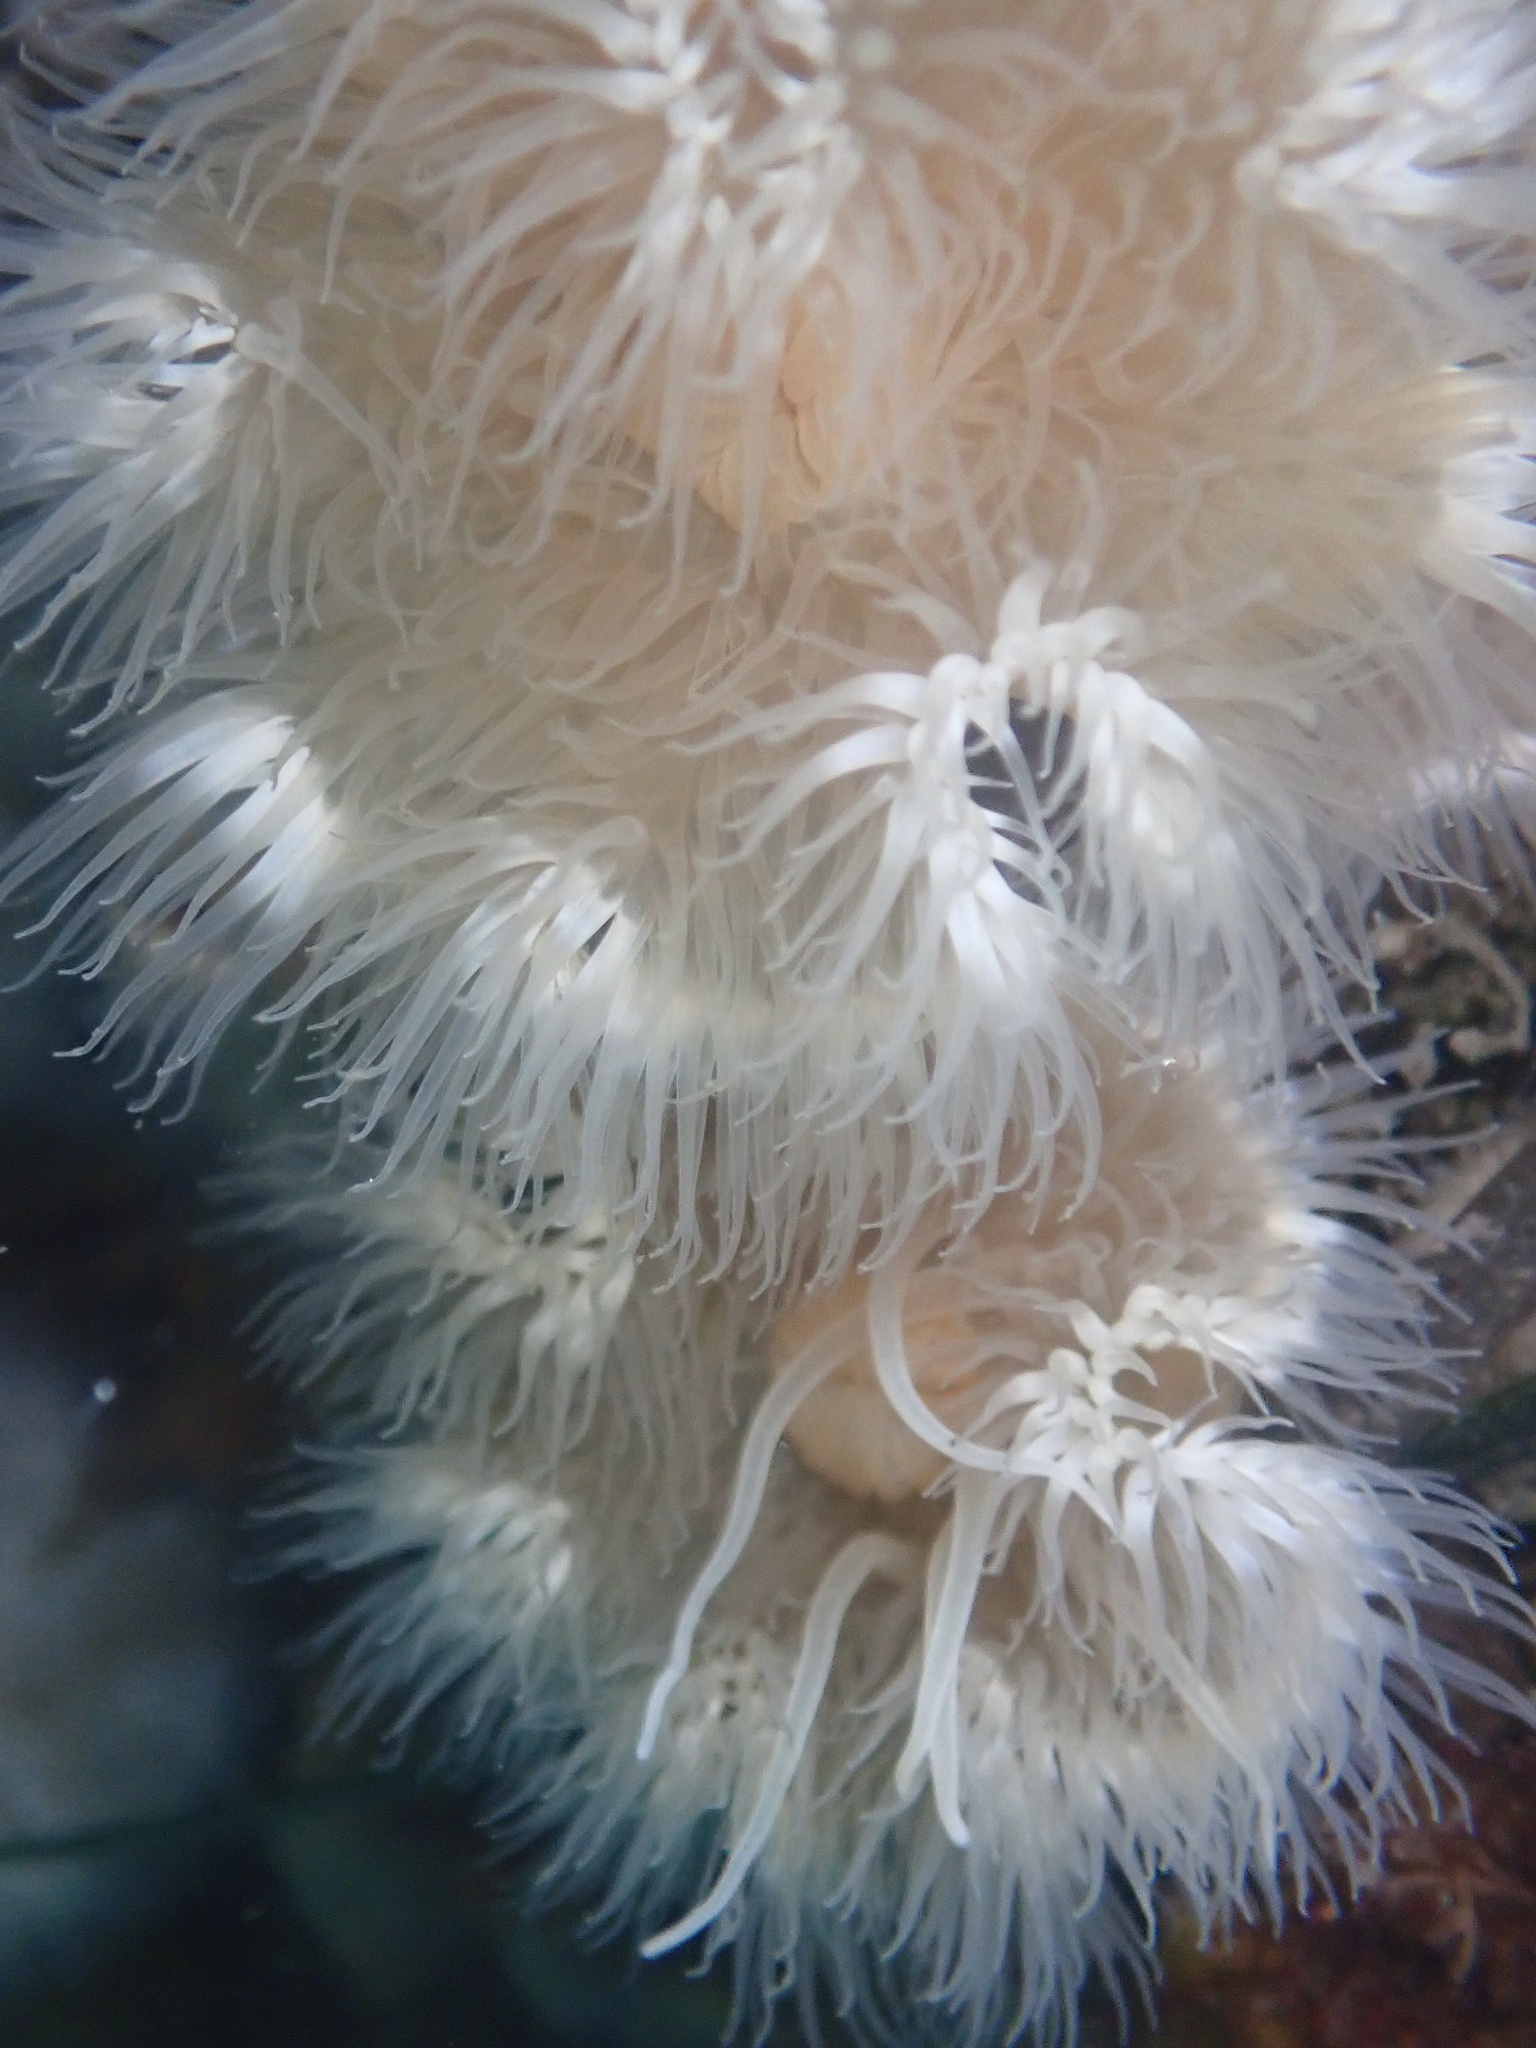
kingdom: Animalia
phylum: Cnidaria
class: Anthozoa
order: Actiniaria
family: Metridiidae
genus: Metridium
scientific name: Metridium senile
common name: Clonal plumose anemone
